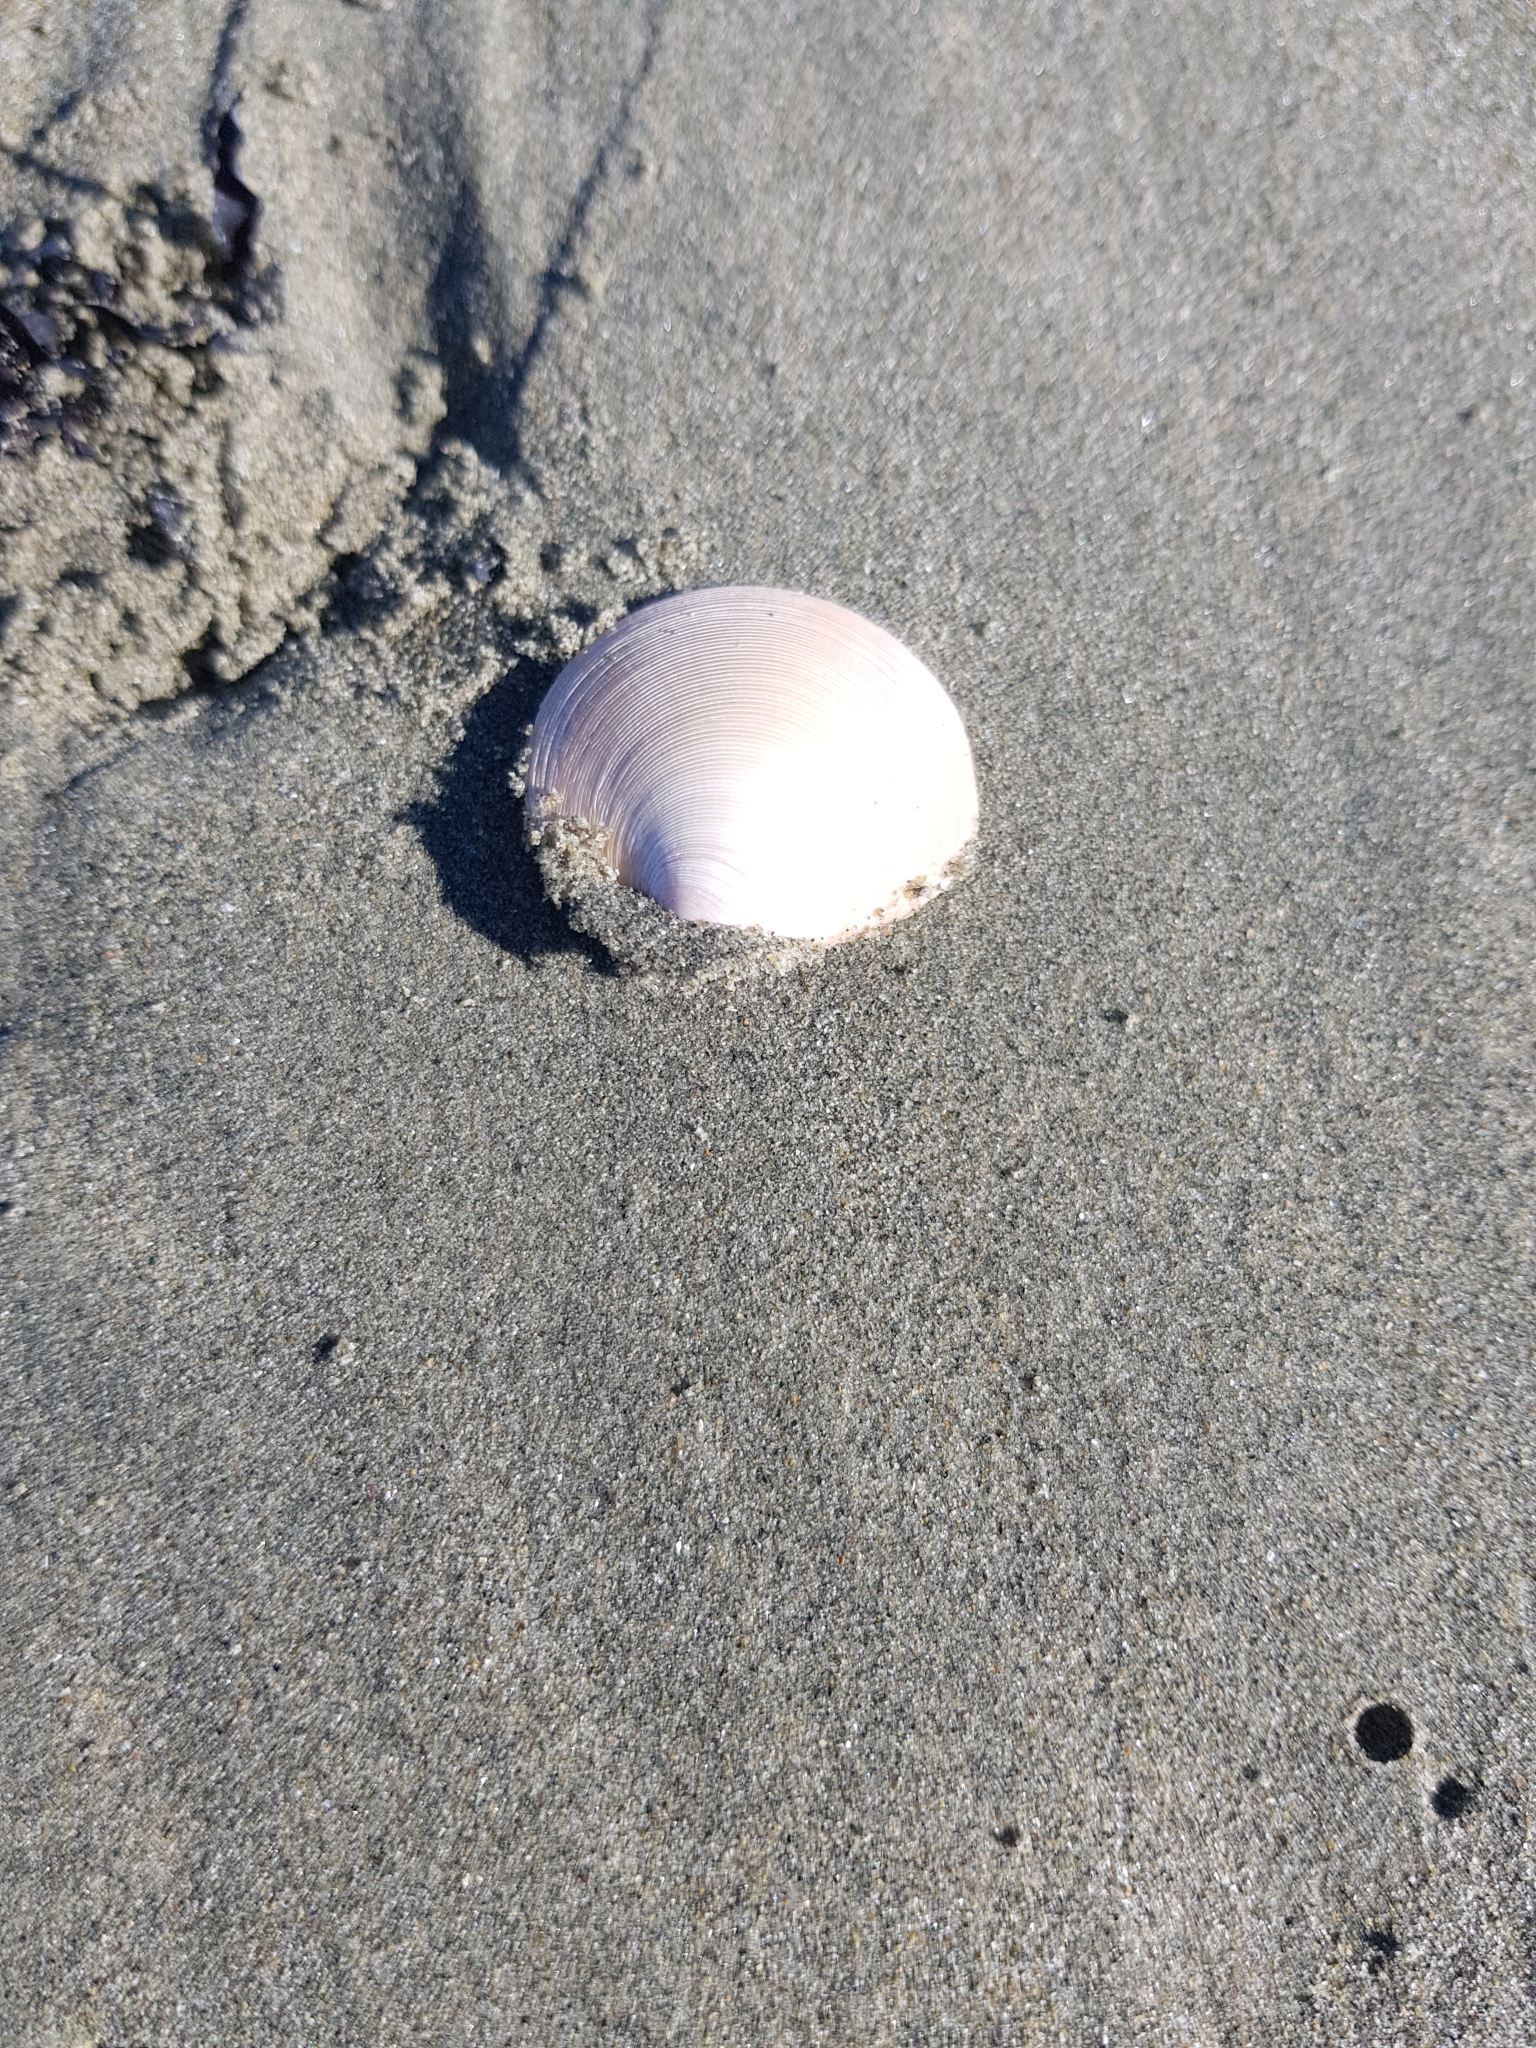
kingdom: Animalia
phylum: Mollusca
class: Bivalvia
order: Venerida
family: Veneridae
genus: Dosinia
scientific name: Dosinia anus
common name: Old-woman dosinia
